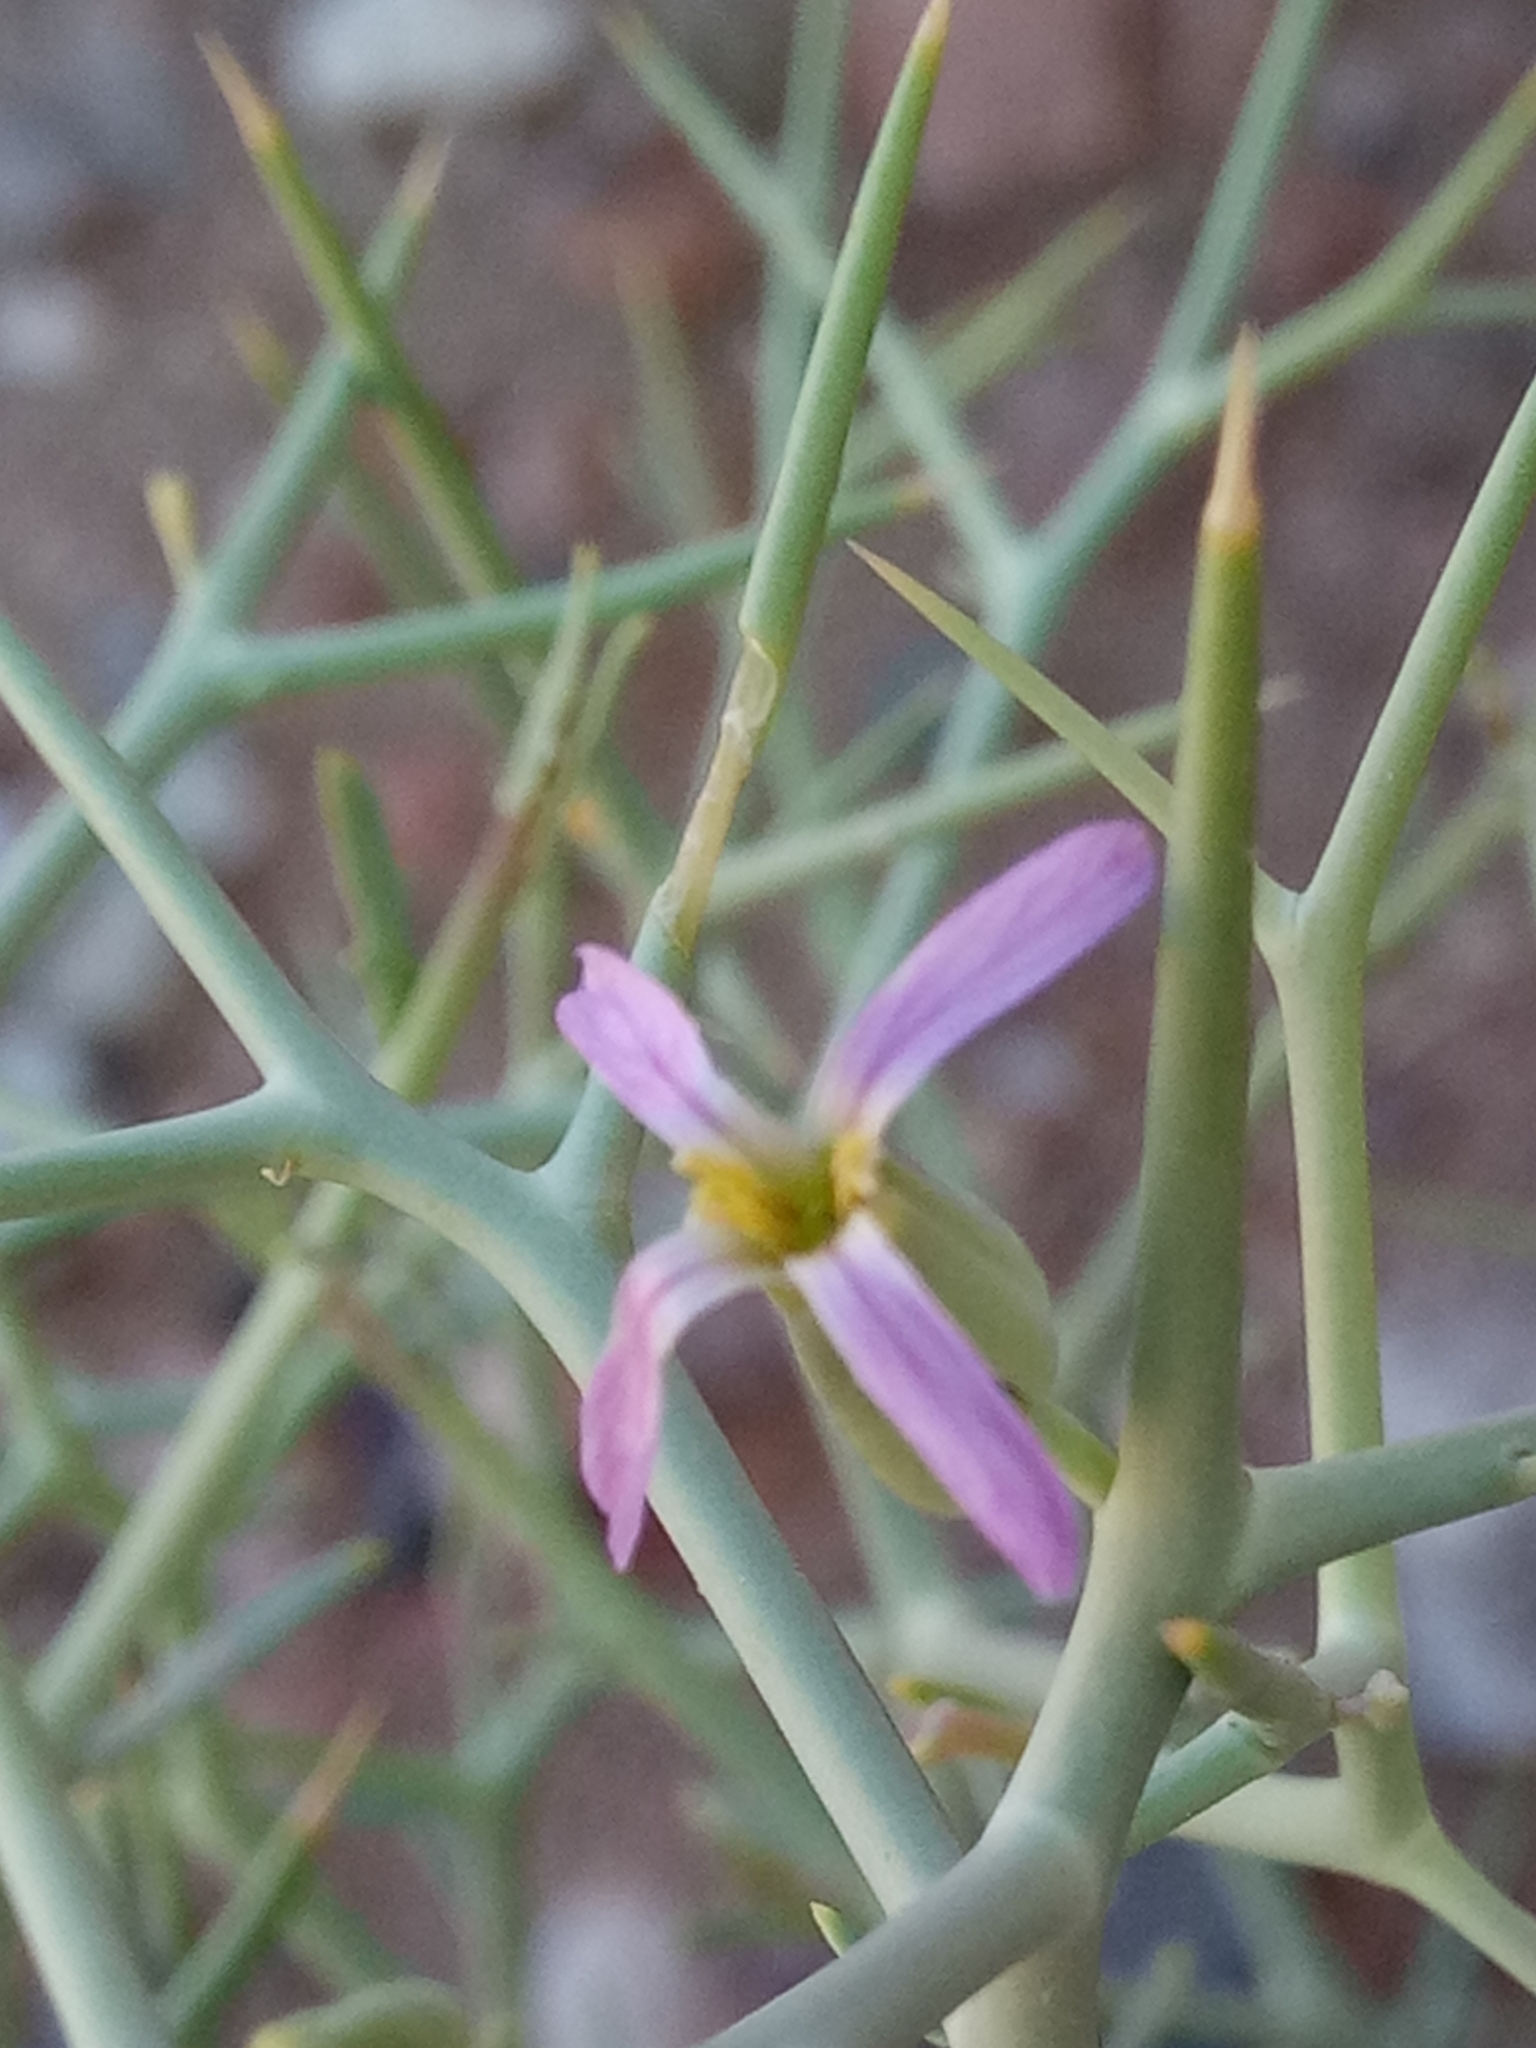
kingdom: Plantae
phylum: Tracheophyta
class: Magnoliopsida
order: Brassicales
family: Brassicaceae
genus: Zilla
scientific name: Zilla spinosa
